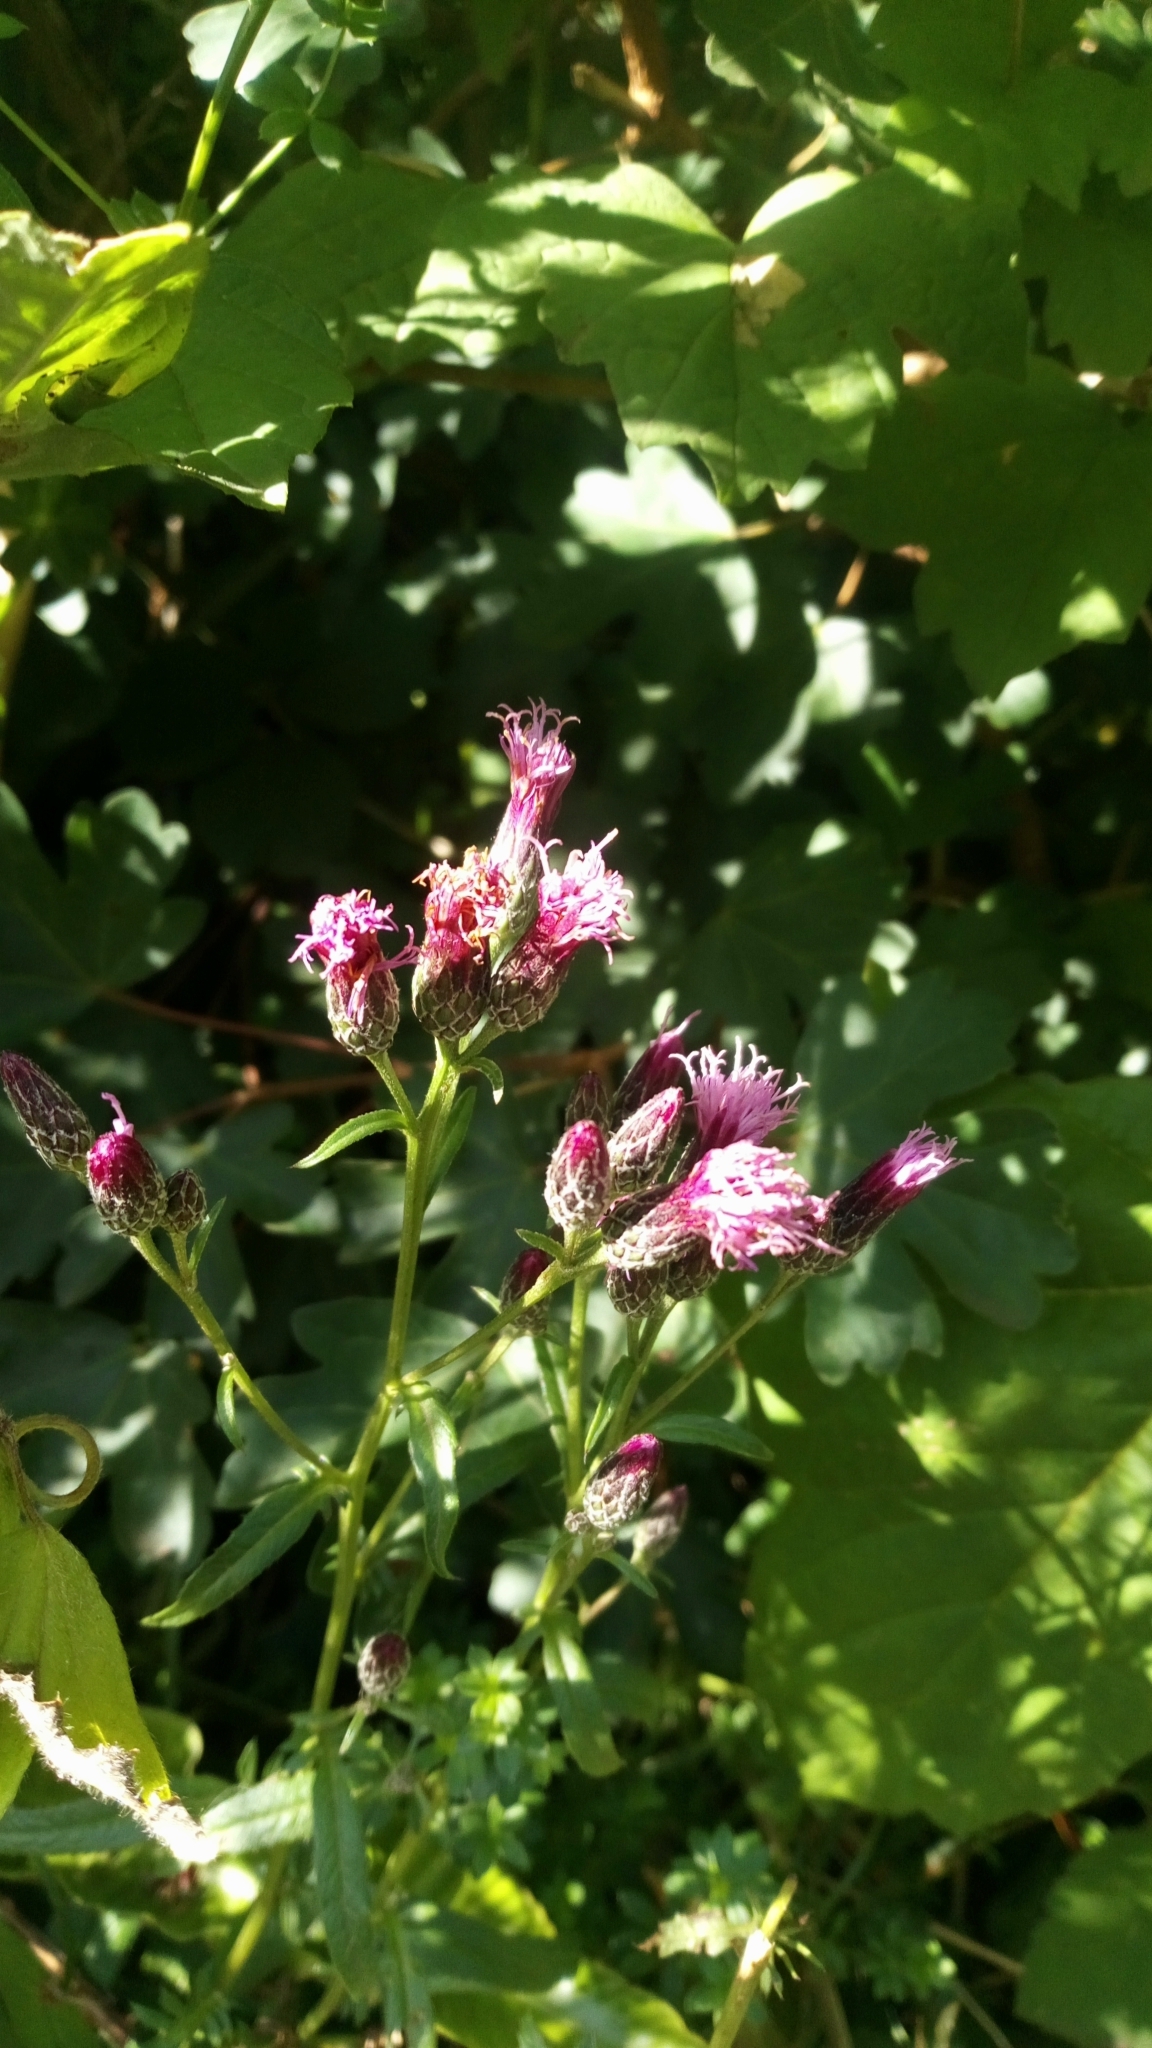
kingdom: Plantae
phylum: Tracheophyta
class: Magnoliopsida
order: Asterales
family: Asteraceae
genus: Serratula
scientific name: Serratula tinctoria
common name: Saw-wort
